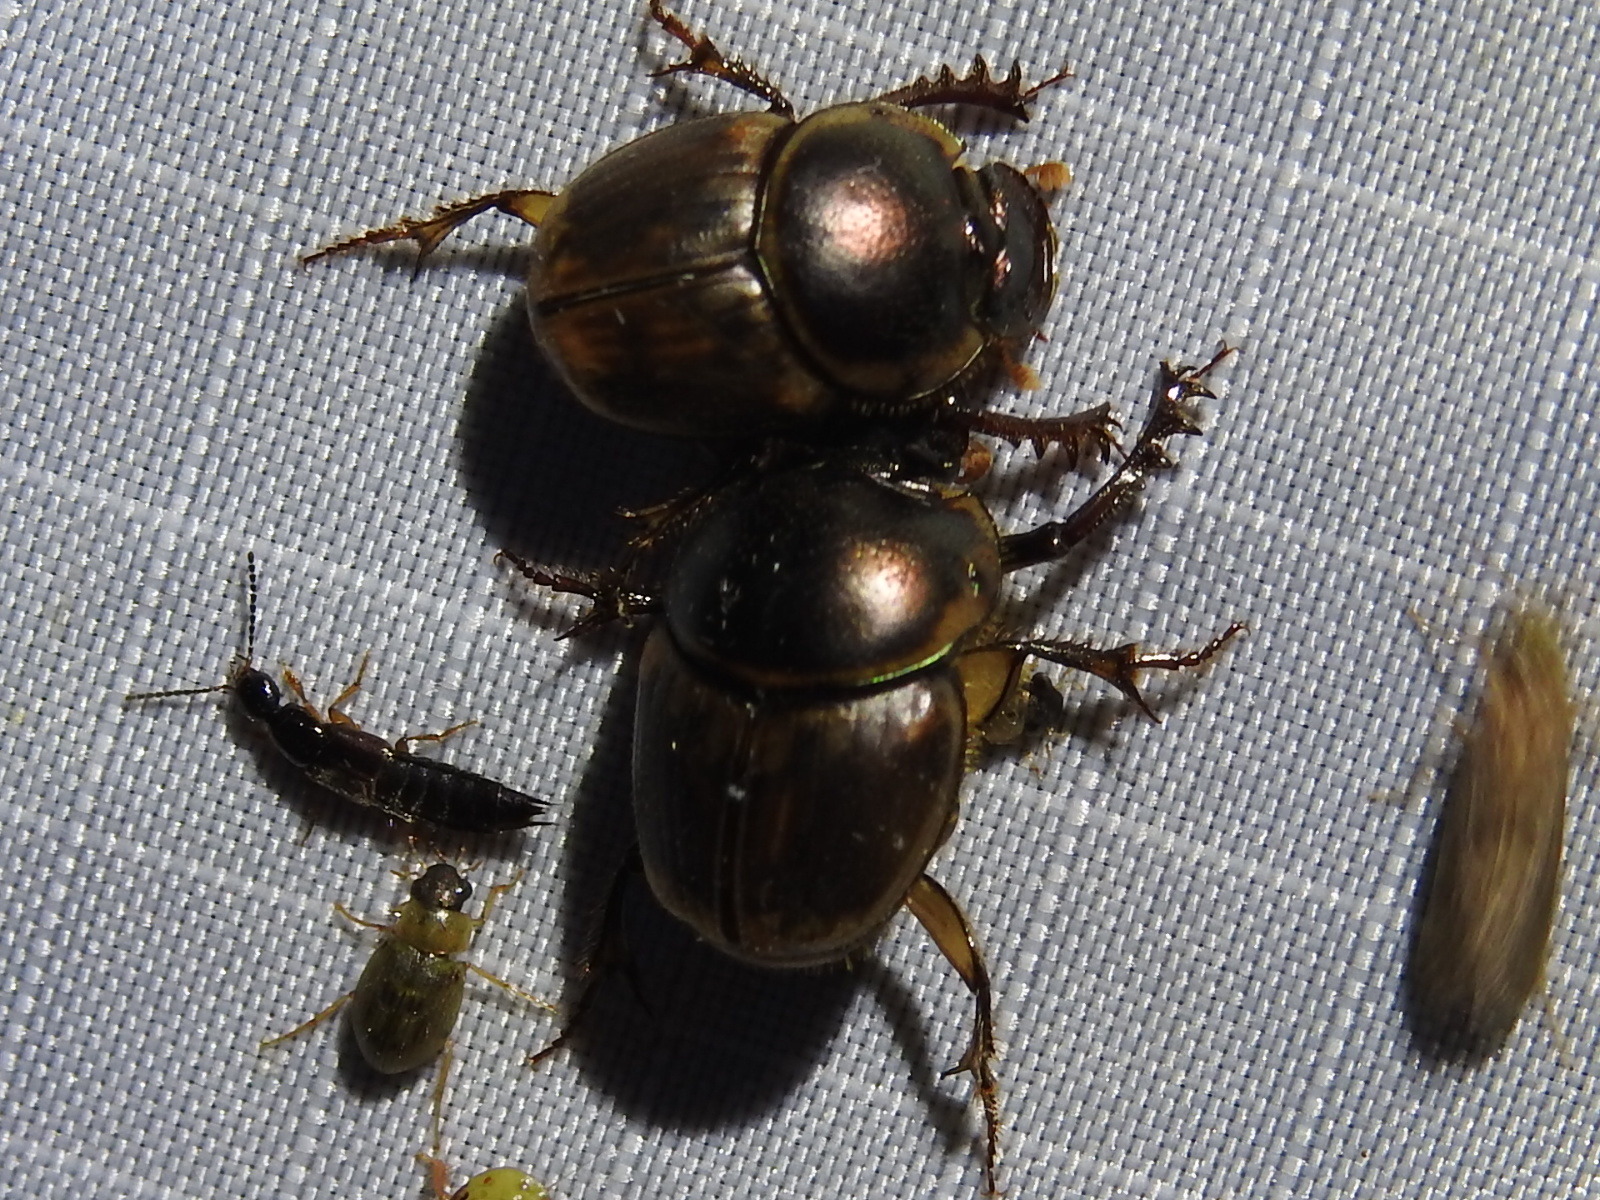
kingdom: Animalia
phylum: Arthropoda
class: Insecta
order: Coleoptera
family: Scarabaeidae
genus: Digitonthophagus
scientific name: Digitonthophagus gazella
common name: Brown dung beetle
